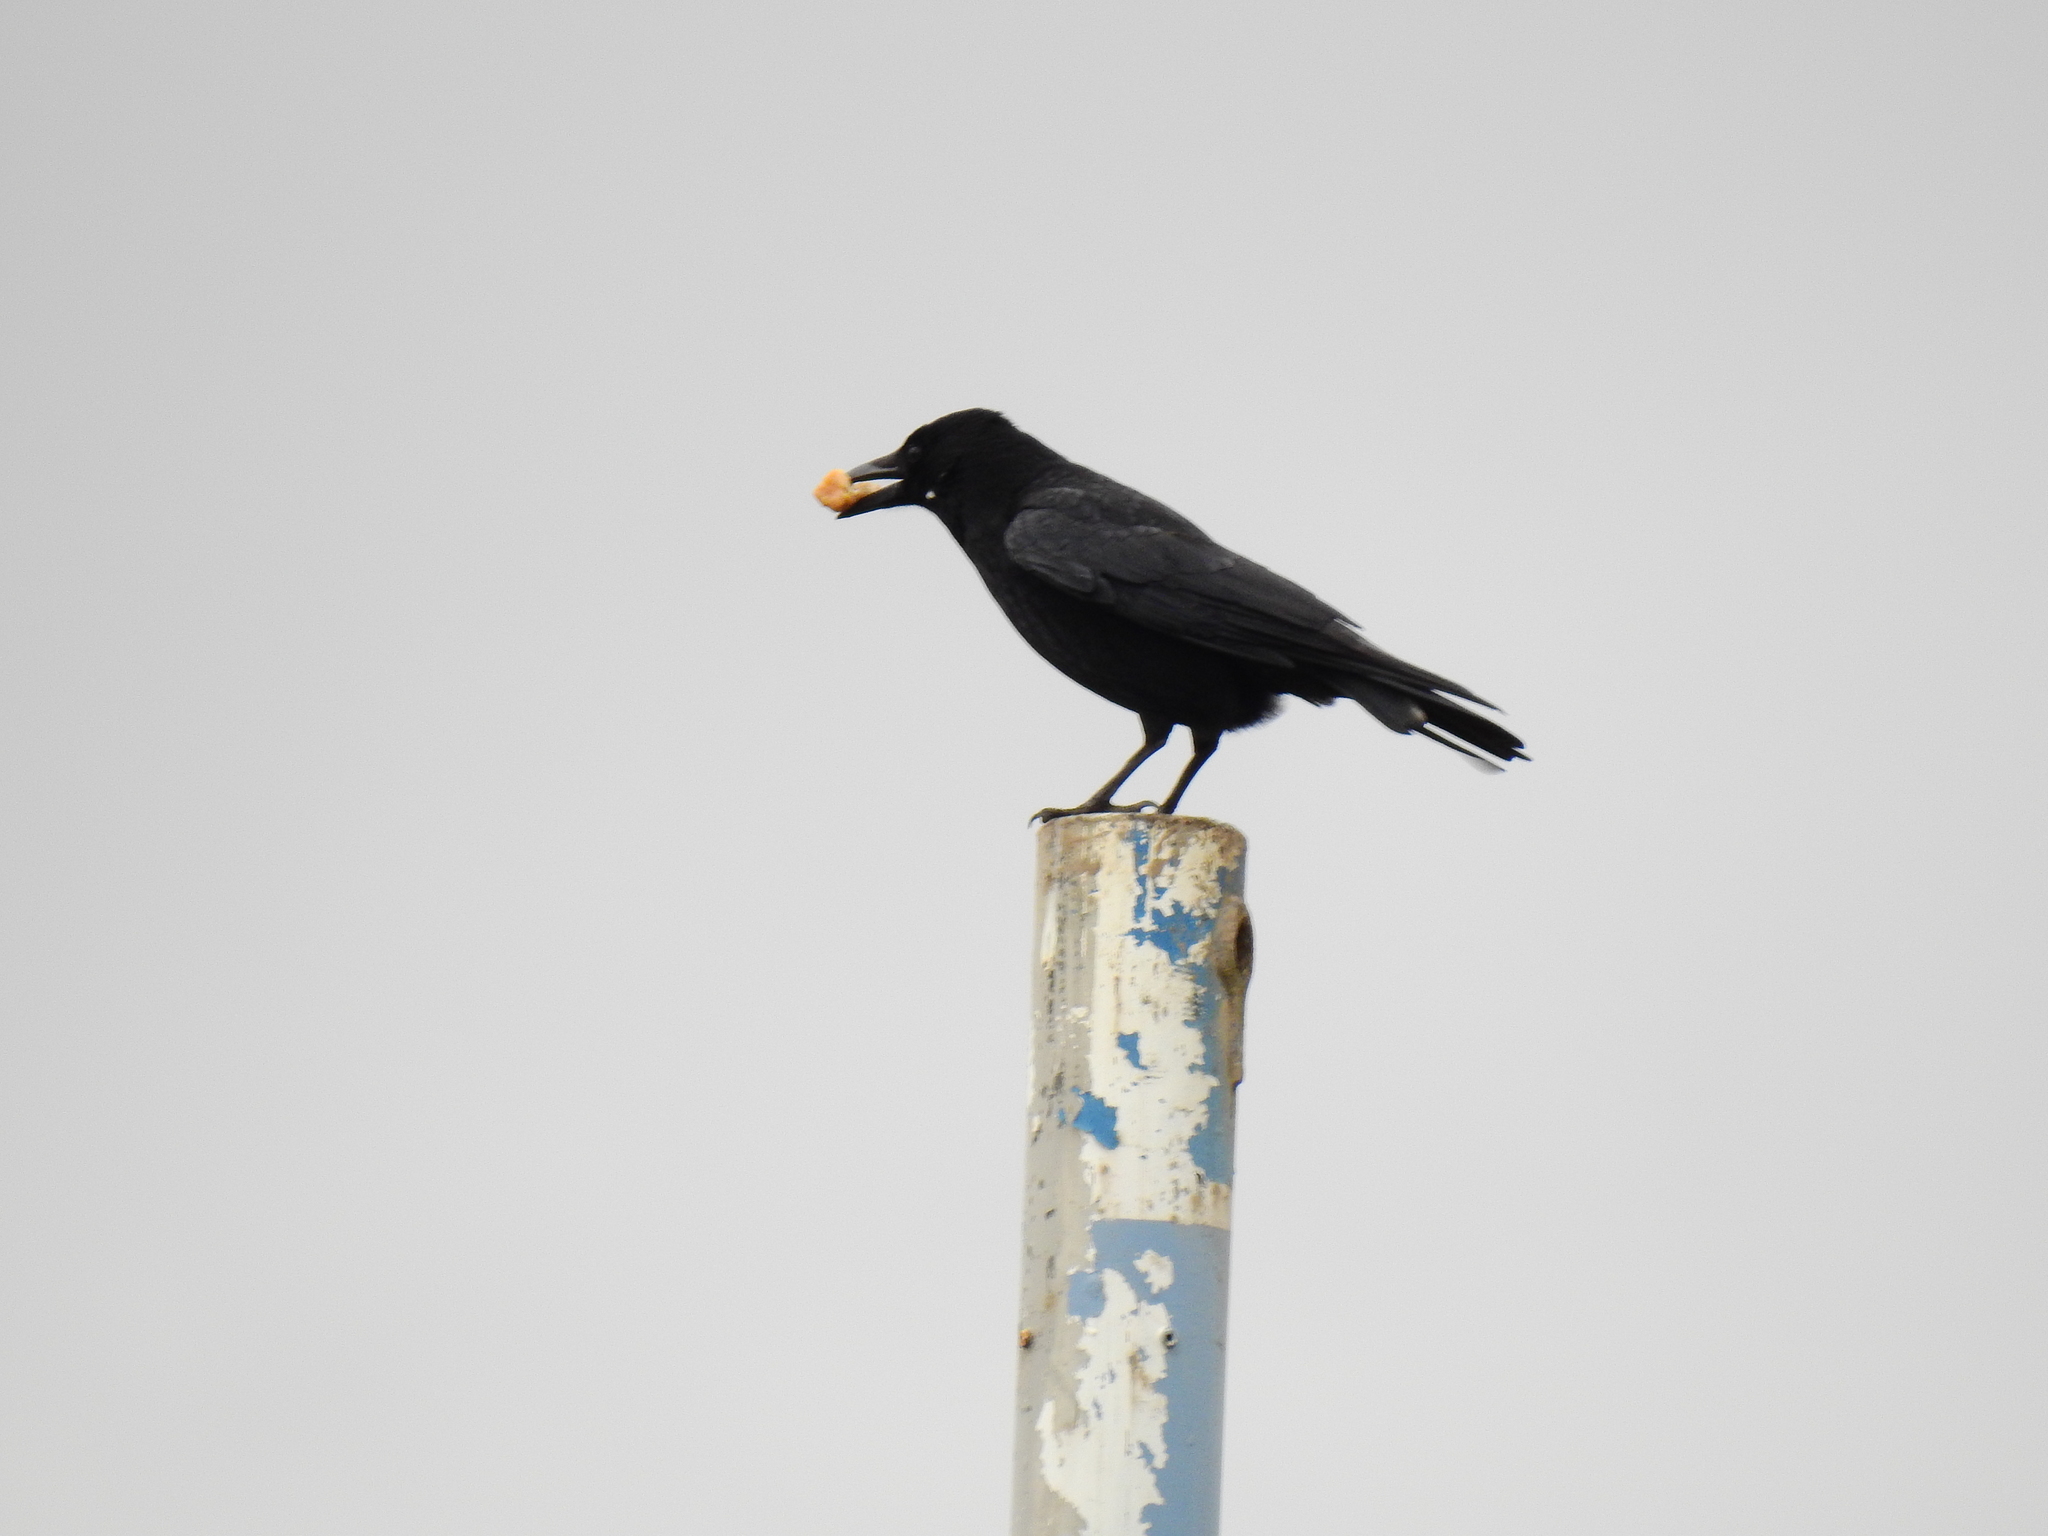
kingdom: Animalia
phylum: Chordata
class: Aves
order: Passeriformes
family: Corvidae
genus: Corvus
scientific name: Corvus corone
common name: Carrion crow
